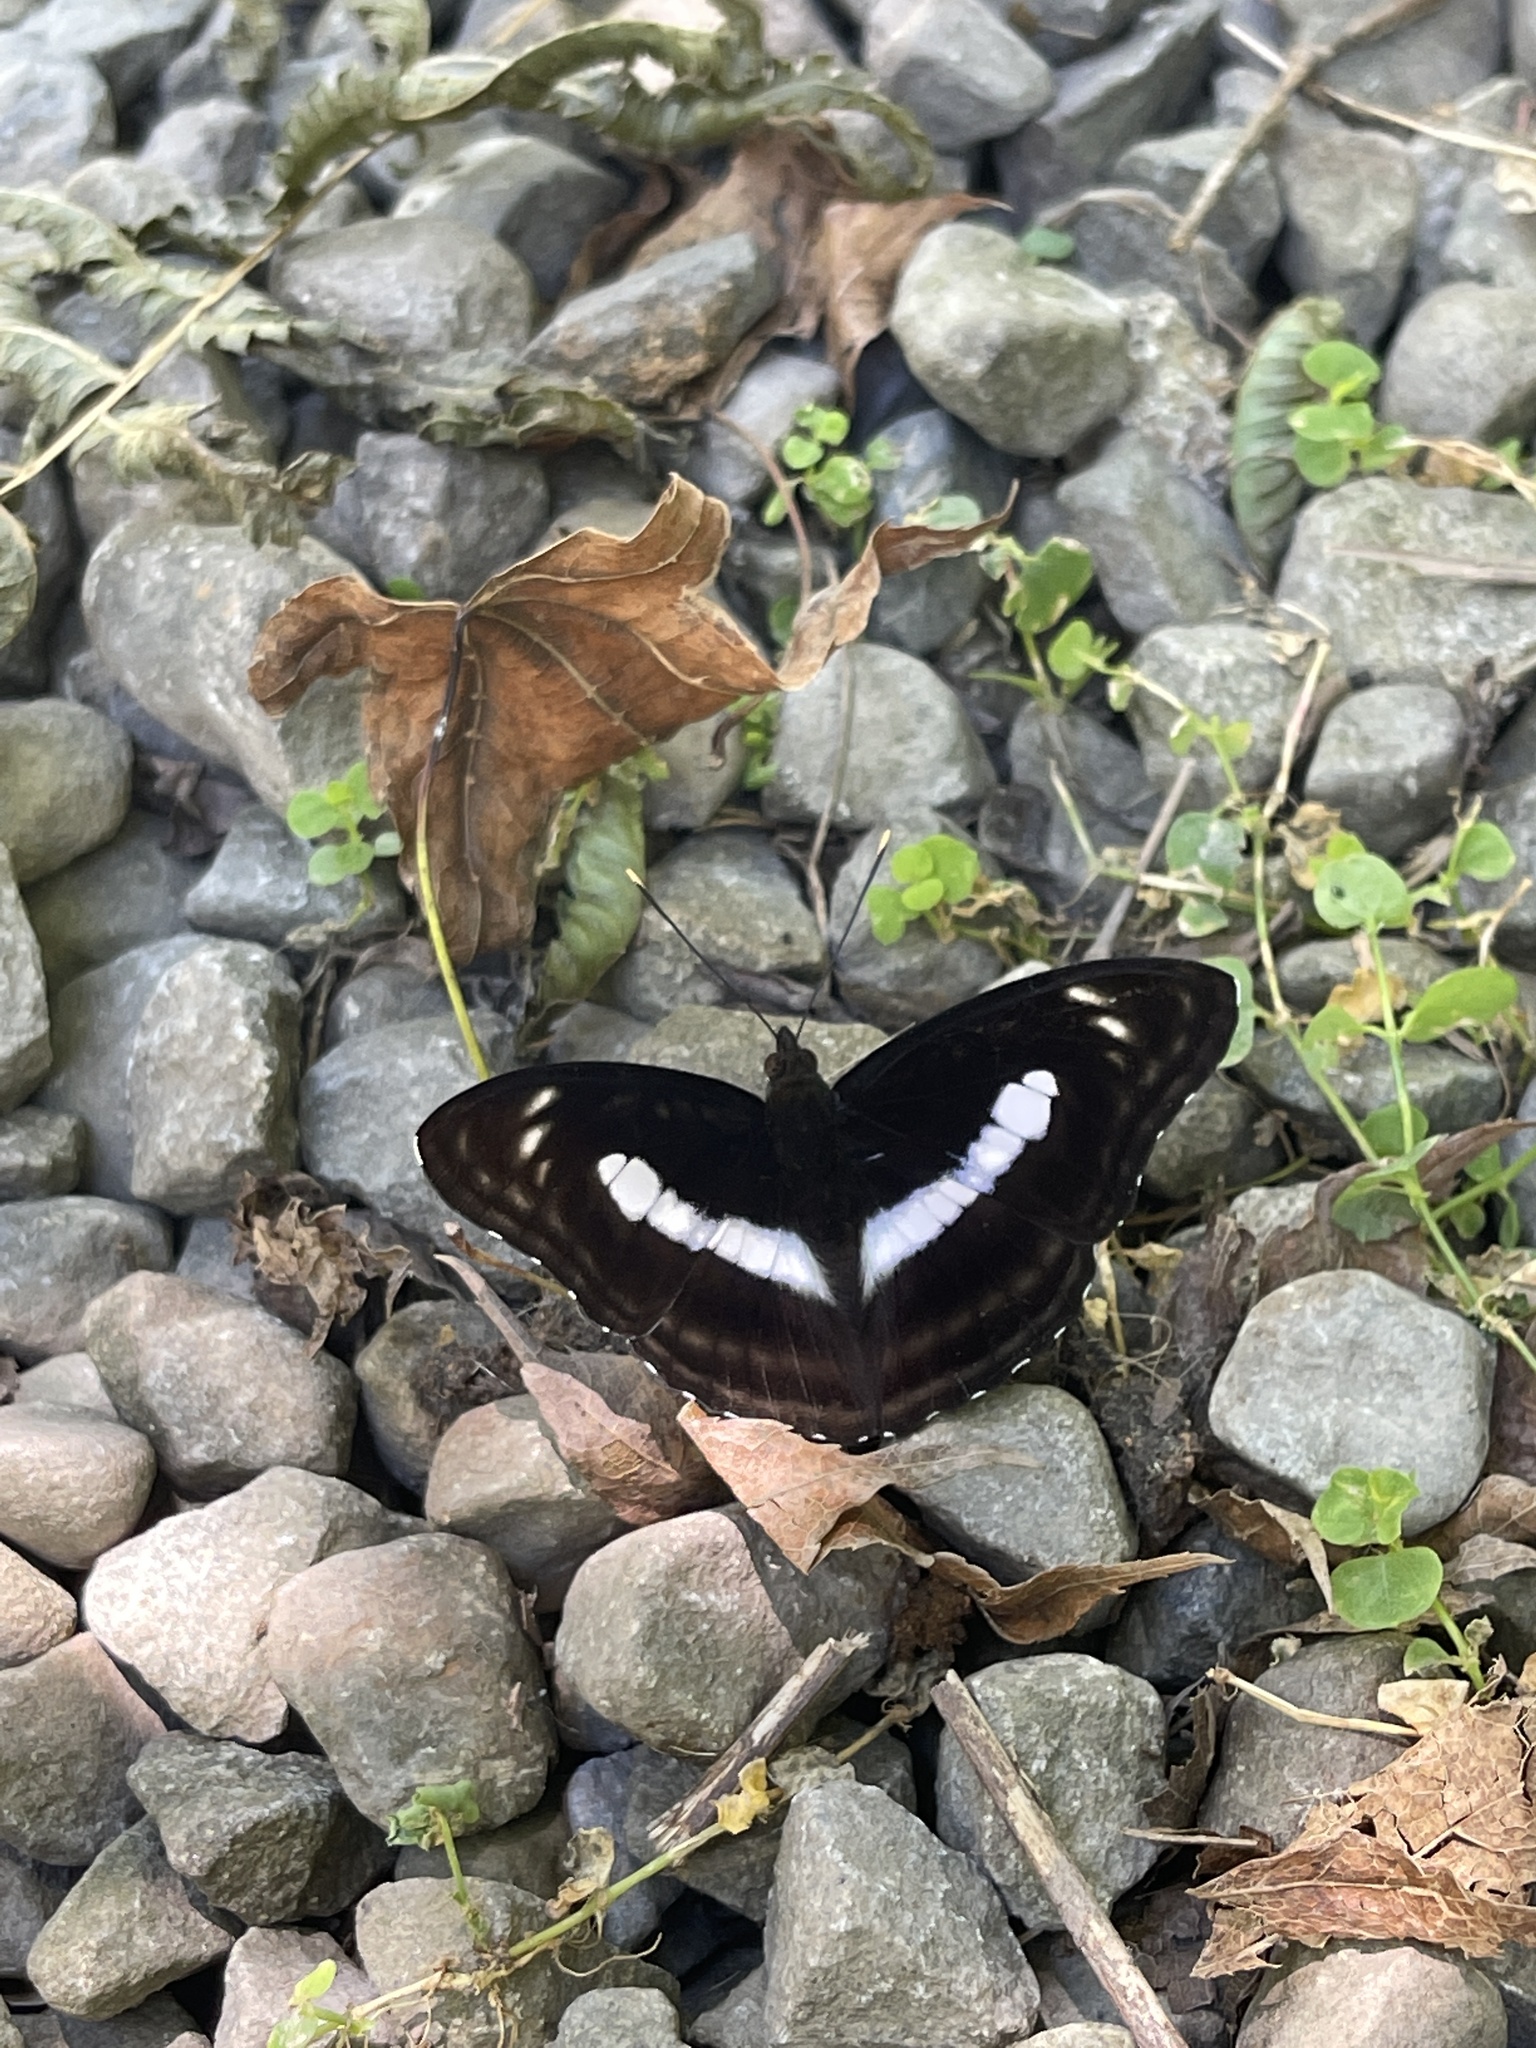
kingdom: Animalia
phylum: Arthropoda
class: Insecta
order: Lepidoptera
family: Nymphalidae
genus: Parathyma
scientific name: Parathyma selenophora
